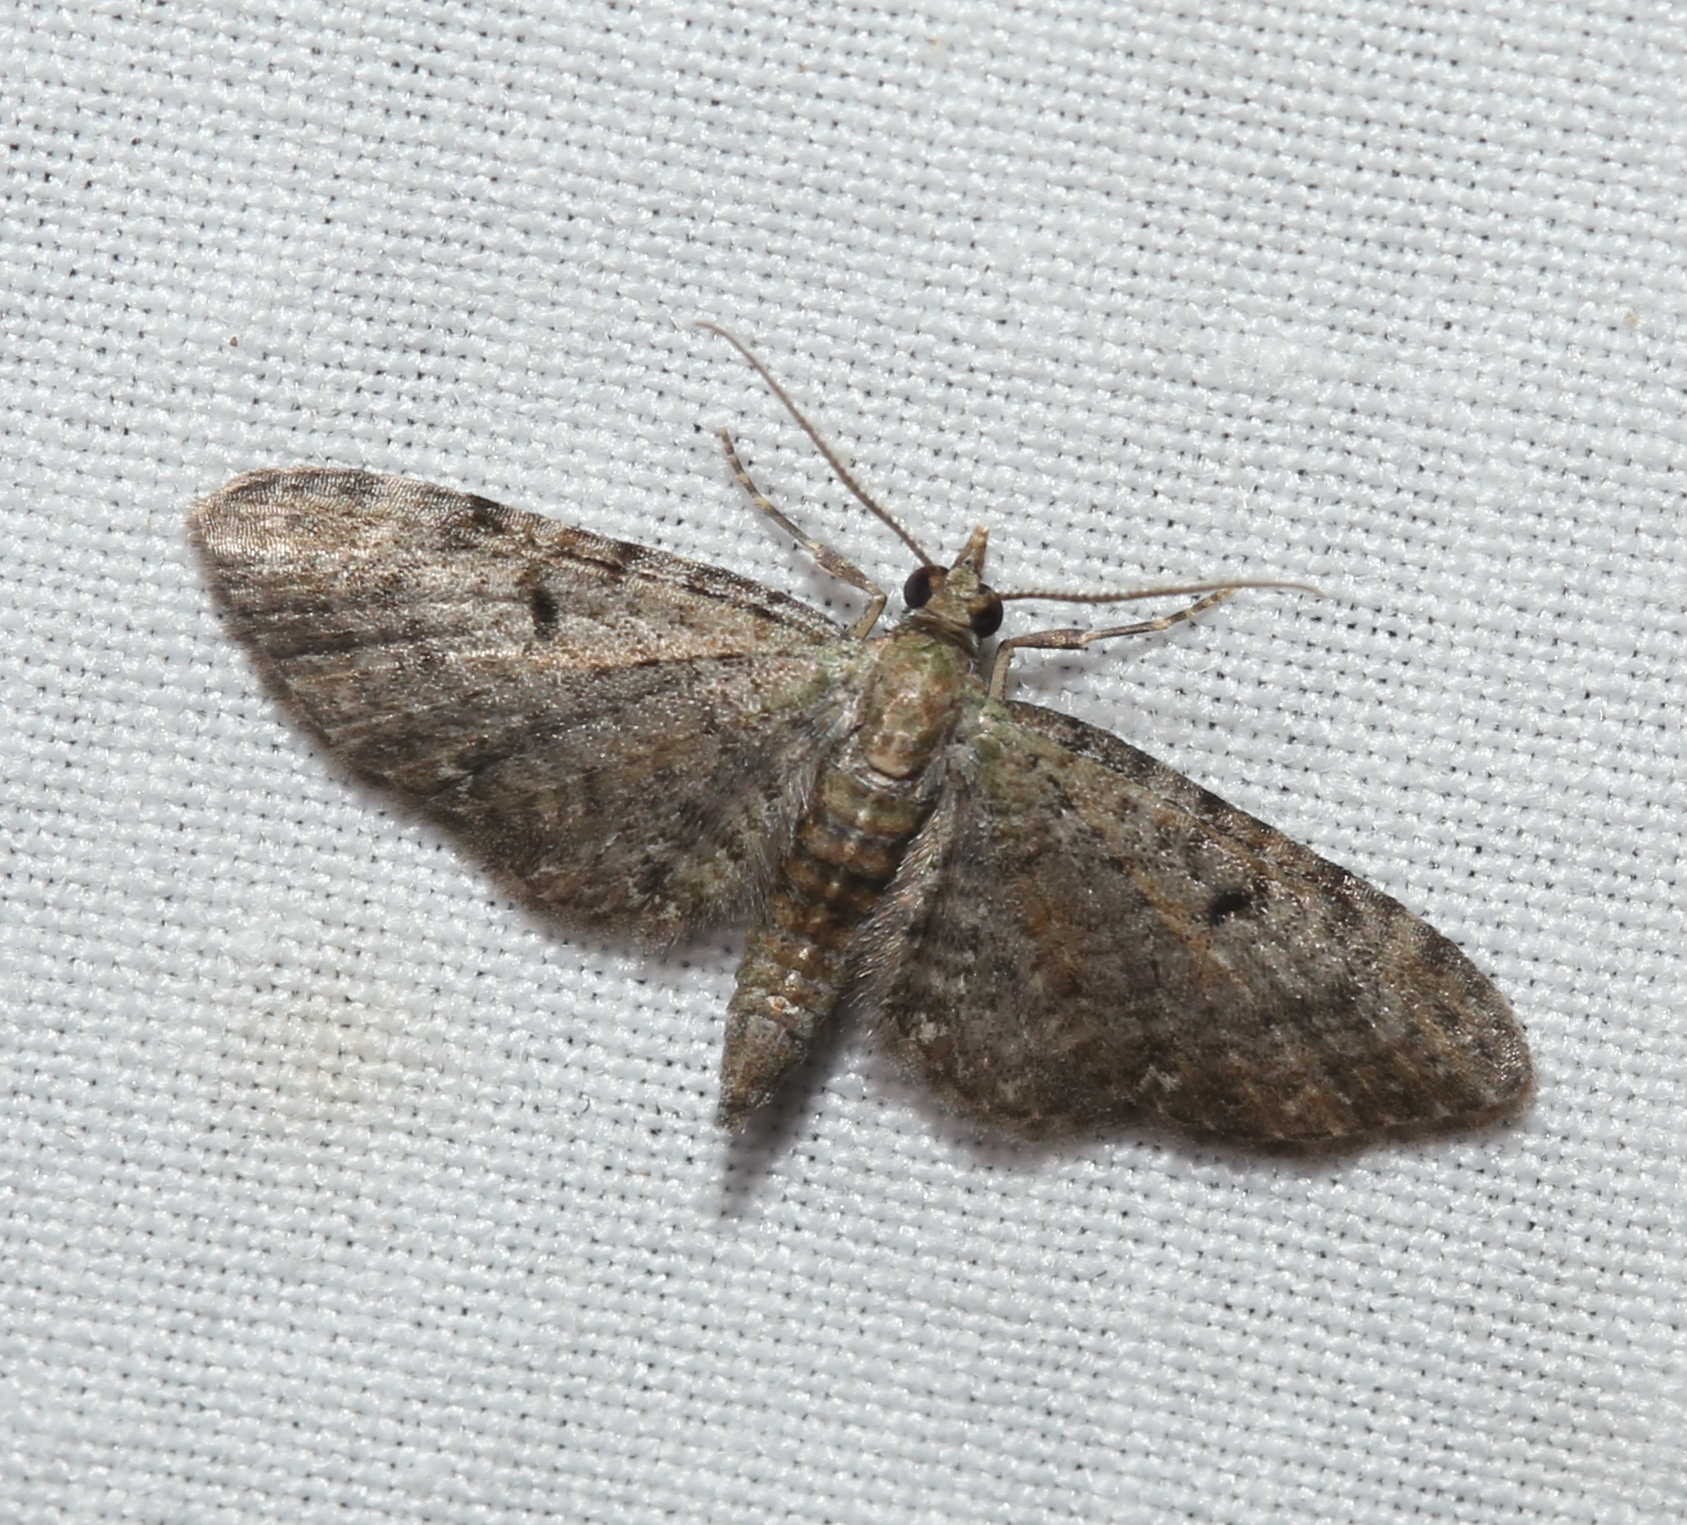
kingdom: Animalia
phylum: Arthropoda
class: Insecta
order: Lepidoptera
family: Geometridae
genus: Eupithecia
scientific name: Eupithecia miserulata
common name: Common eupithecia
